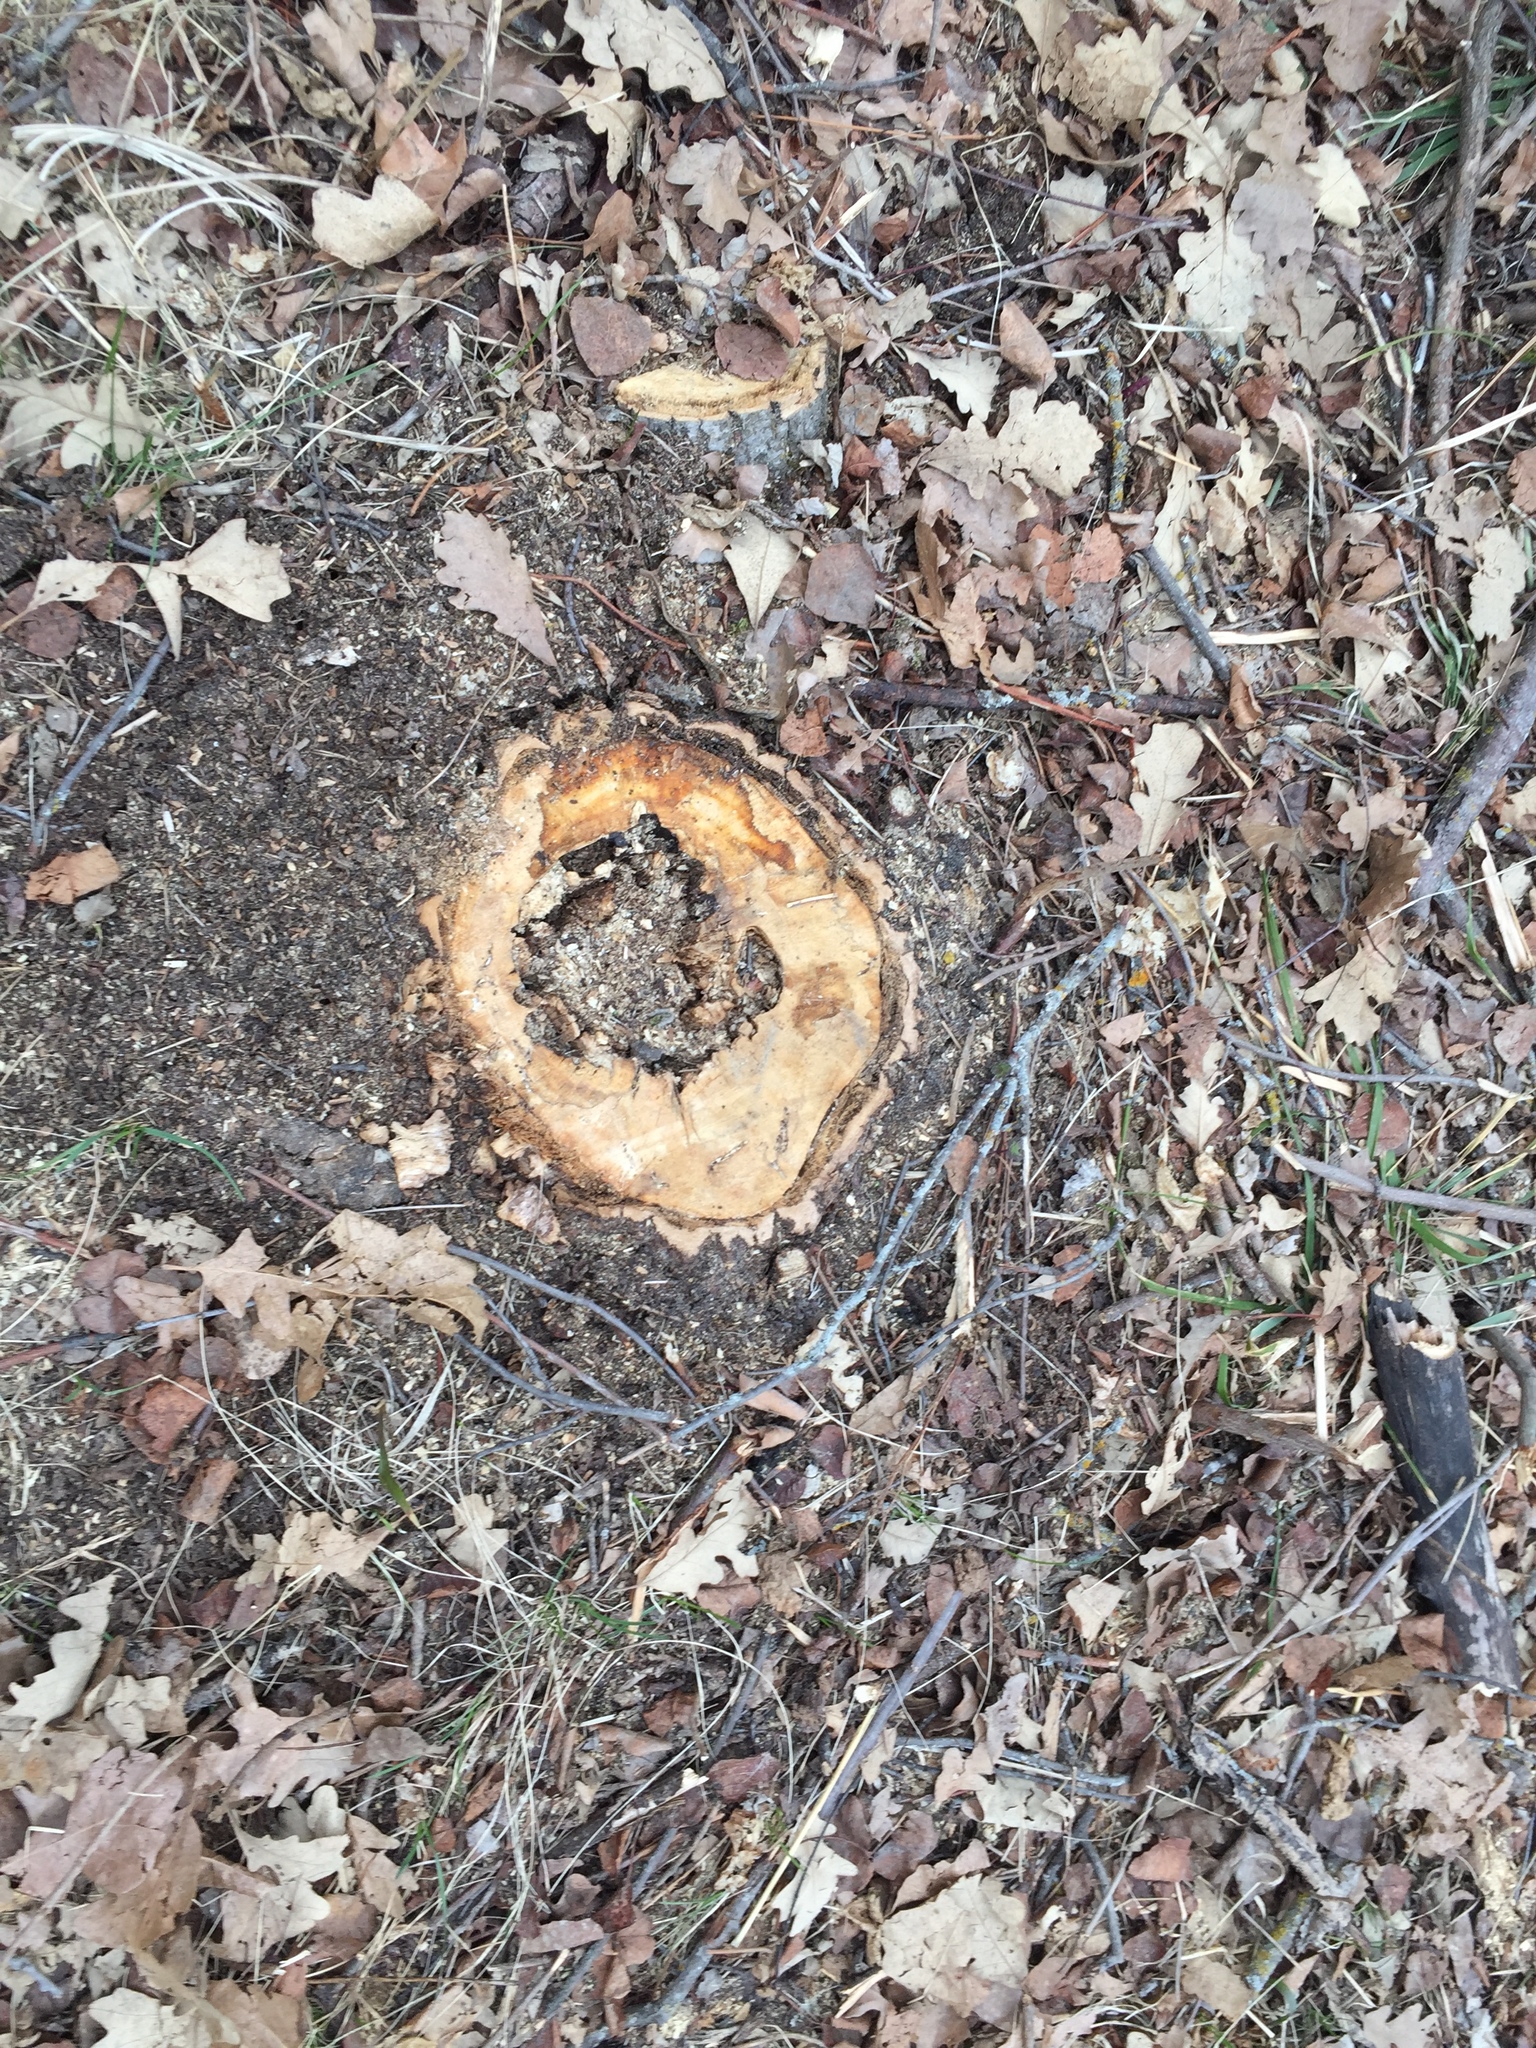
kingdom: Plantae
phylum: Tracheophyta
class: Magnoliopsida
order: Fagales
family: Fagaceae
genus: Quercus
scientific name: Quercus macrocarpa
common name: Bur oak
